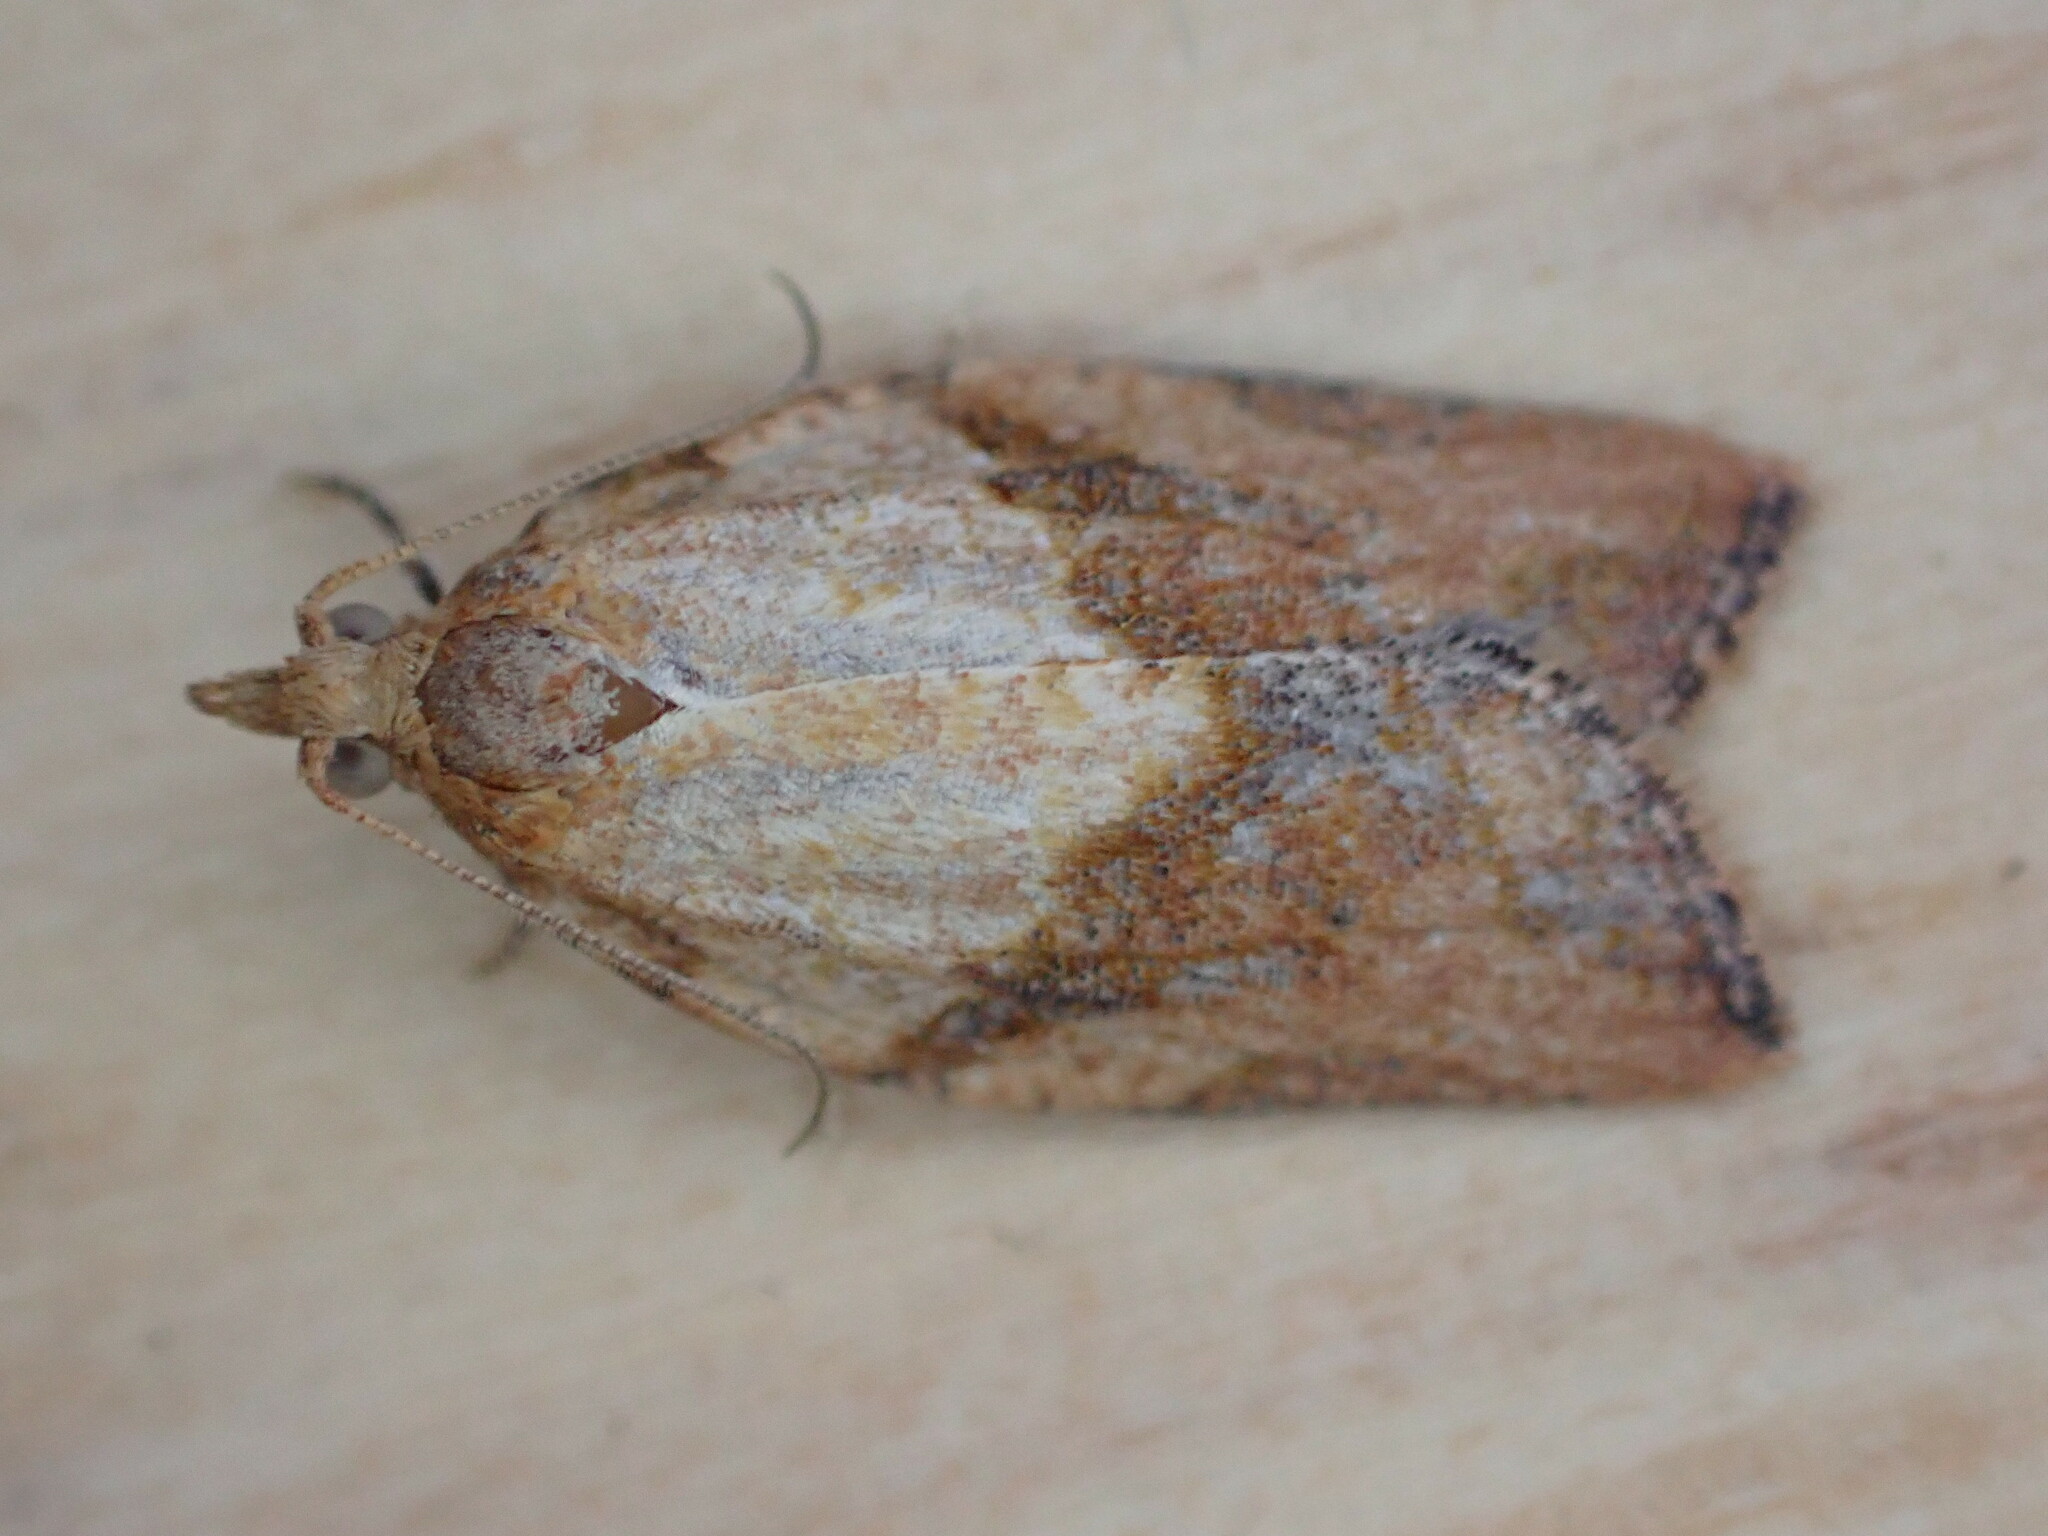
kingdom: Animalia
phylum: Arthropoda
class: Insecta
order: Lepidoptera
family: Tortricidae
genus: Epiphyas
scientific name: Epiphyas postvittana
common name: Light brown apple moth
